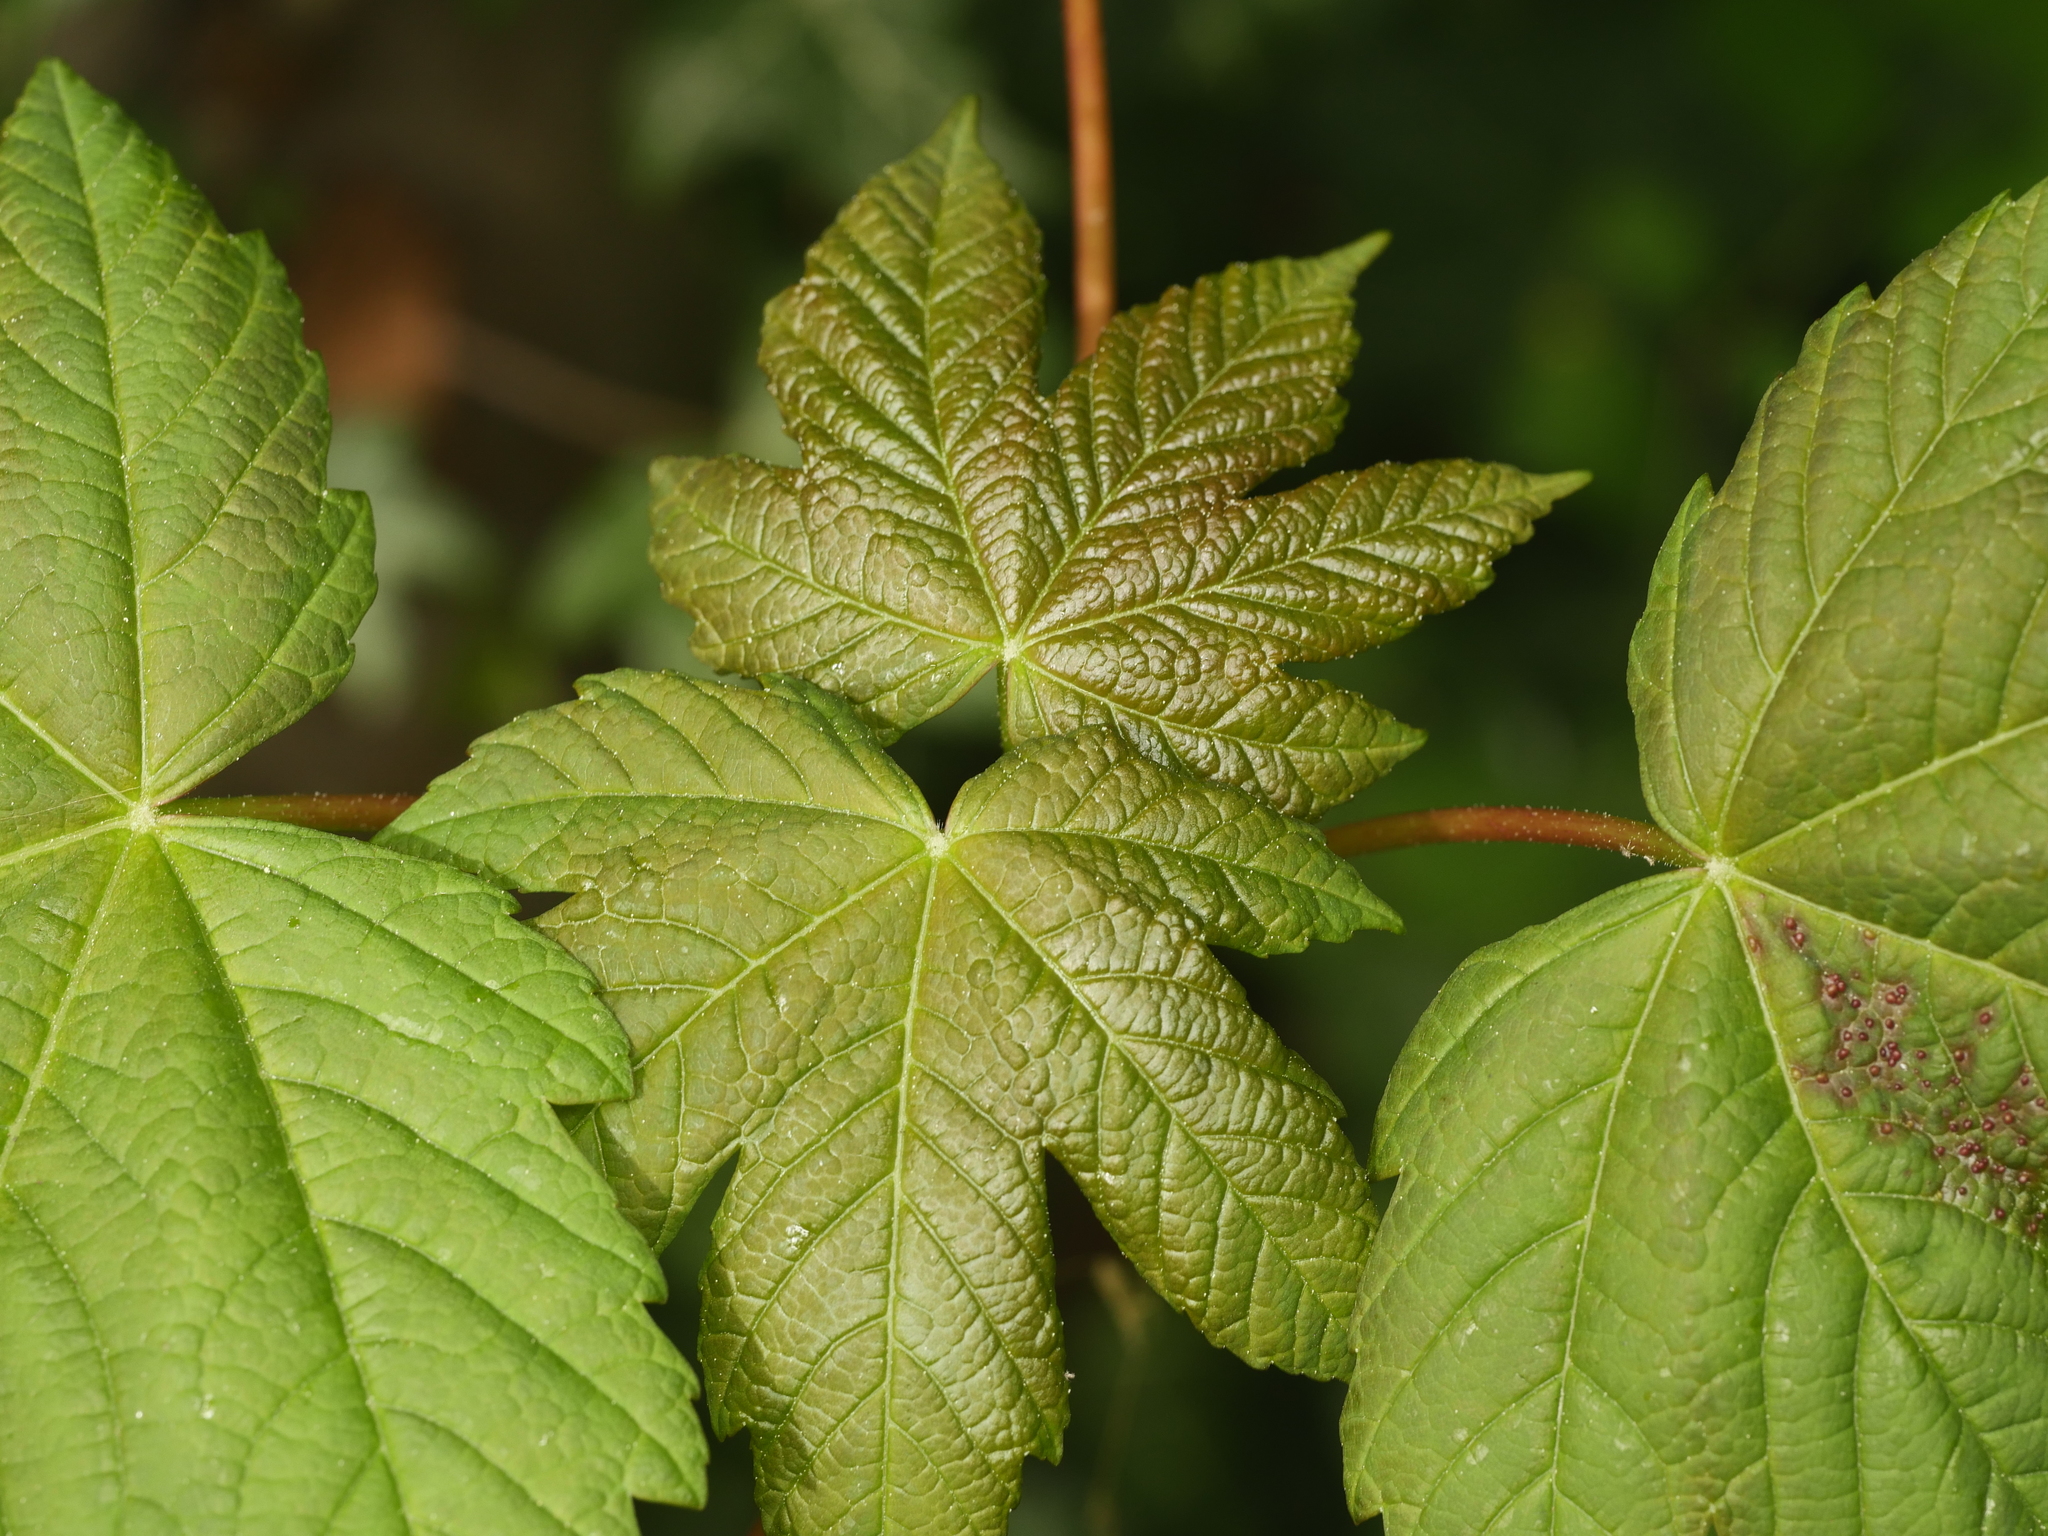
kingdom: Plantae
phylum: Tracheophyta
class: Magnoliopsida
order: Sapindales
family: Sapindaceae
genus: Acer
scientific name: Acer pseudoplatanus
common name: Sycamore
